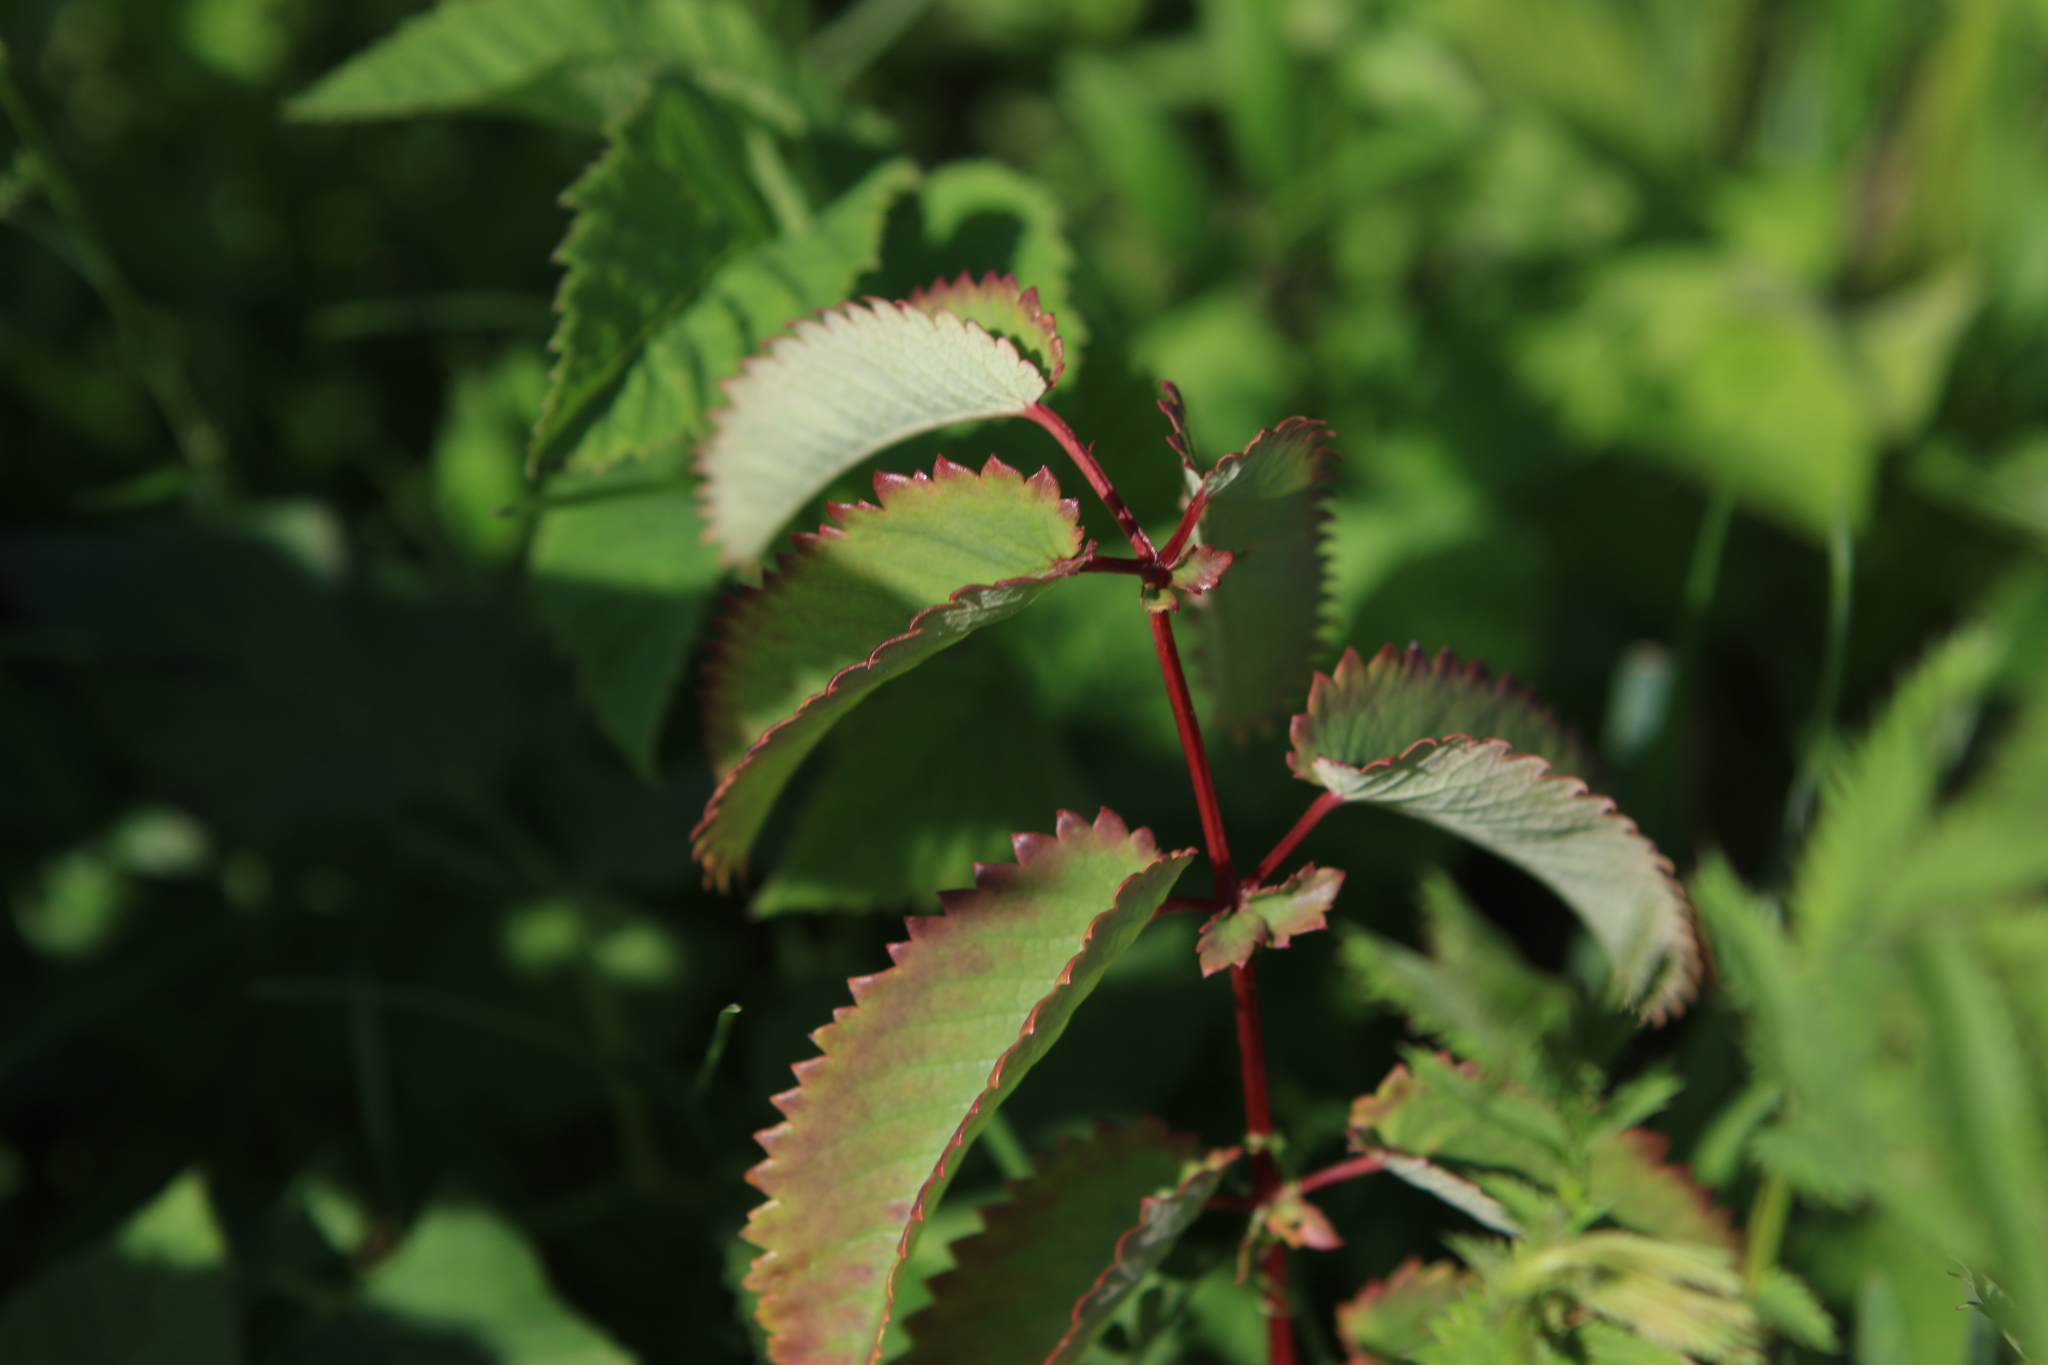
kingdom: Plantae
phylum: Tracheophyta
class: Magnoliopsida
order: Rosales
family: Rosaceae
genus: Sanguisorba
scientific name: Sanguisorba officinalis
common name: Great burnet
